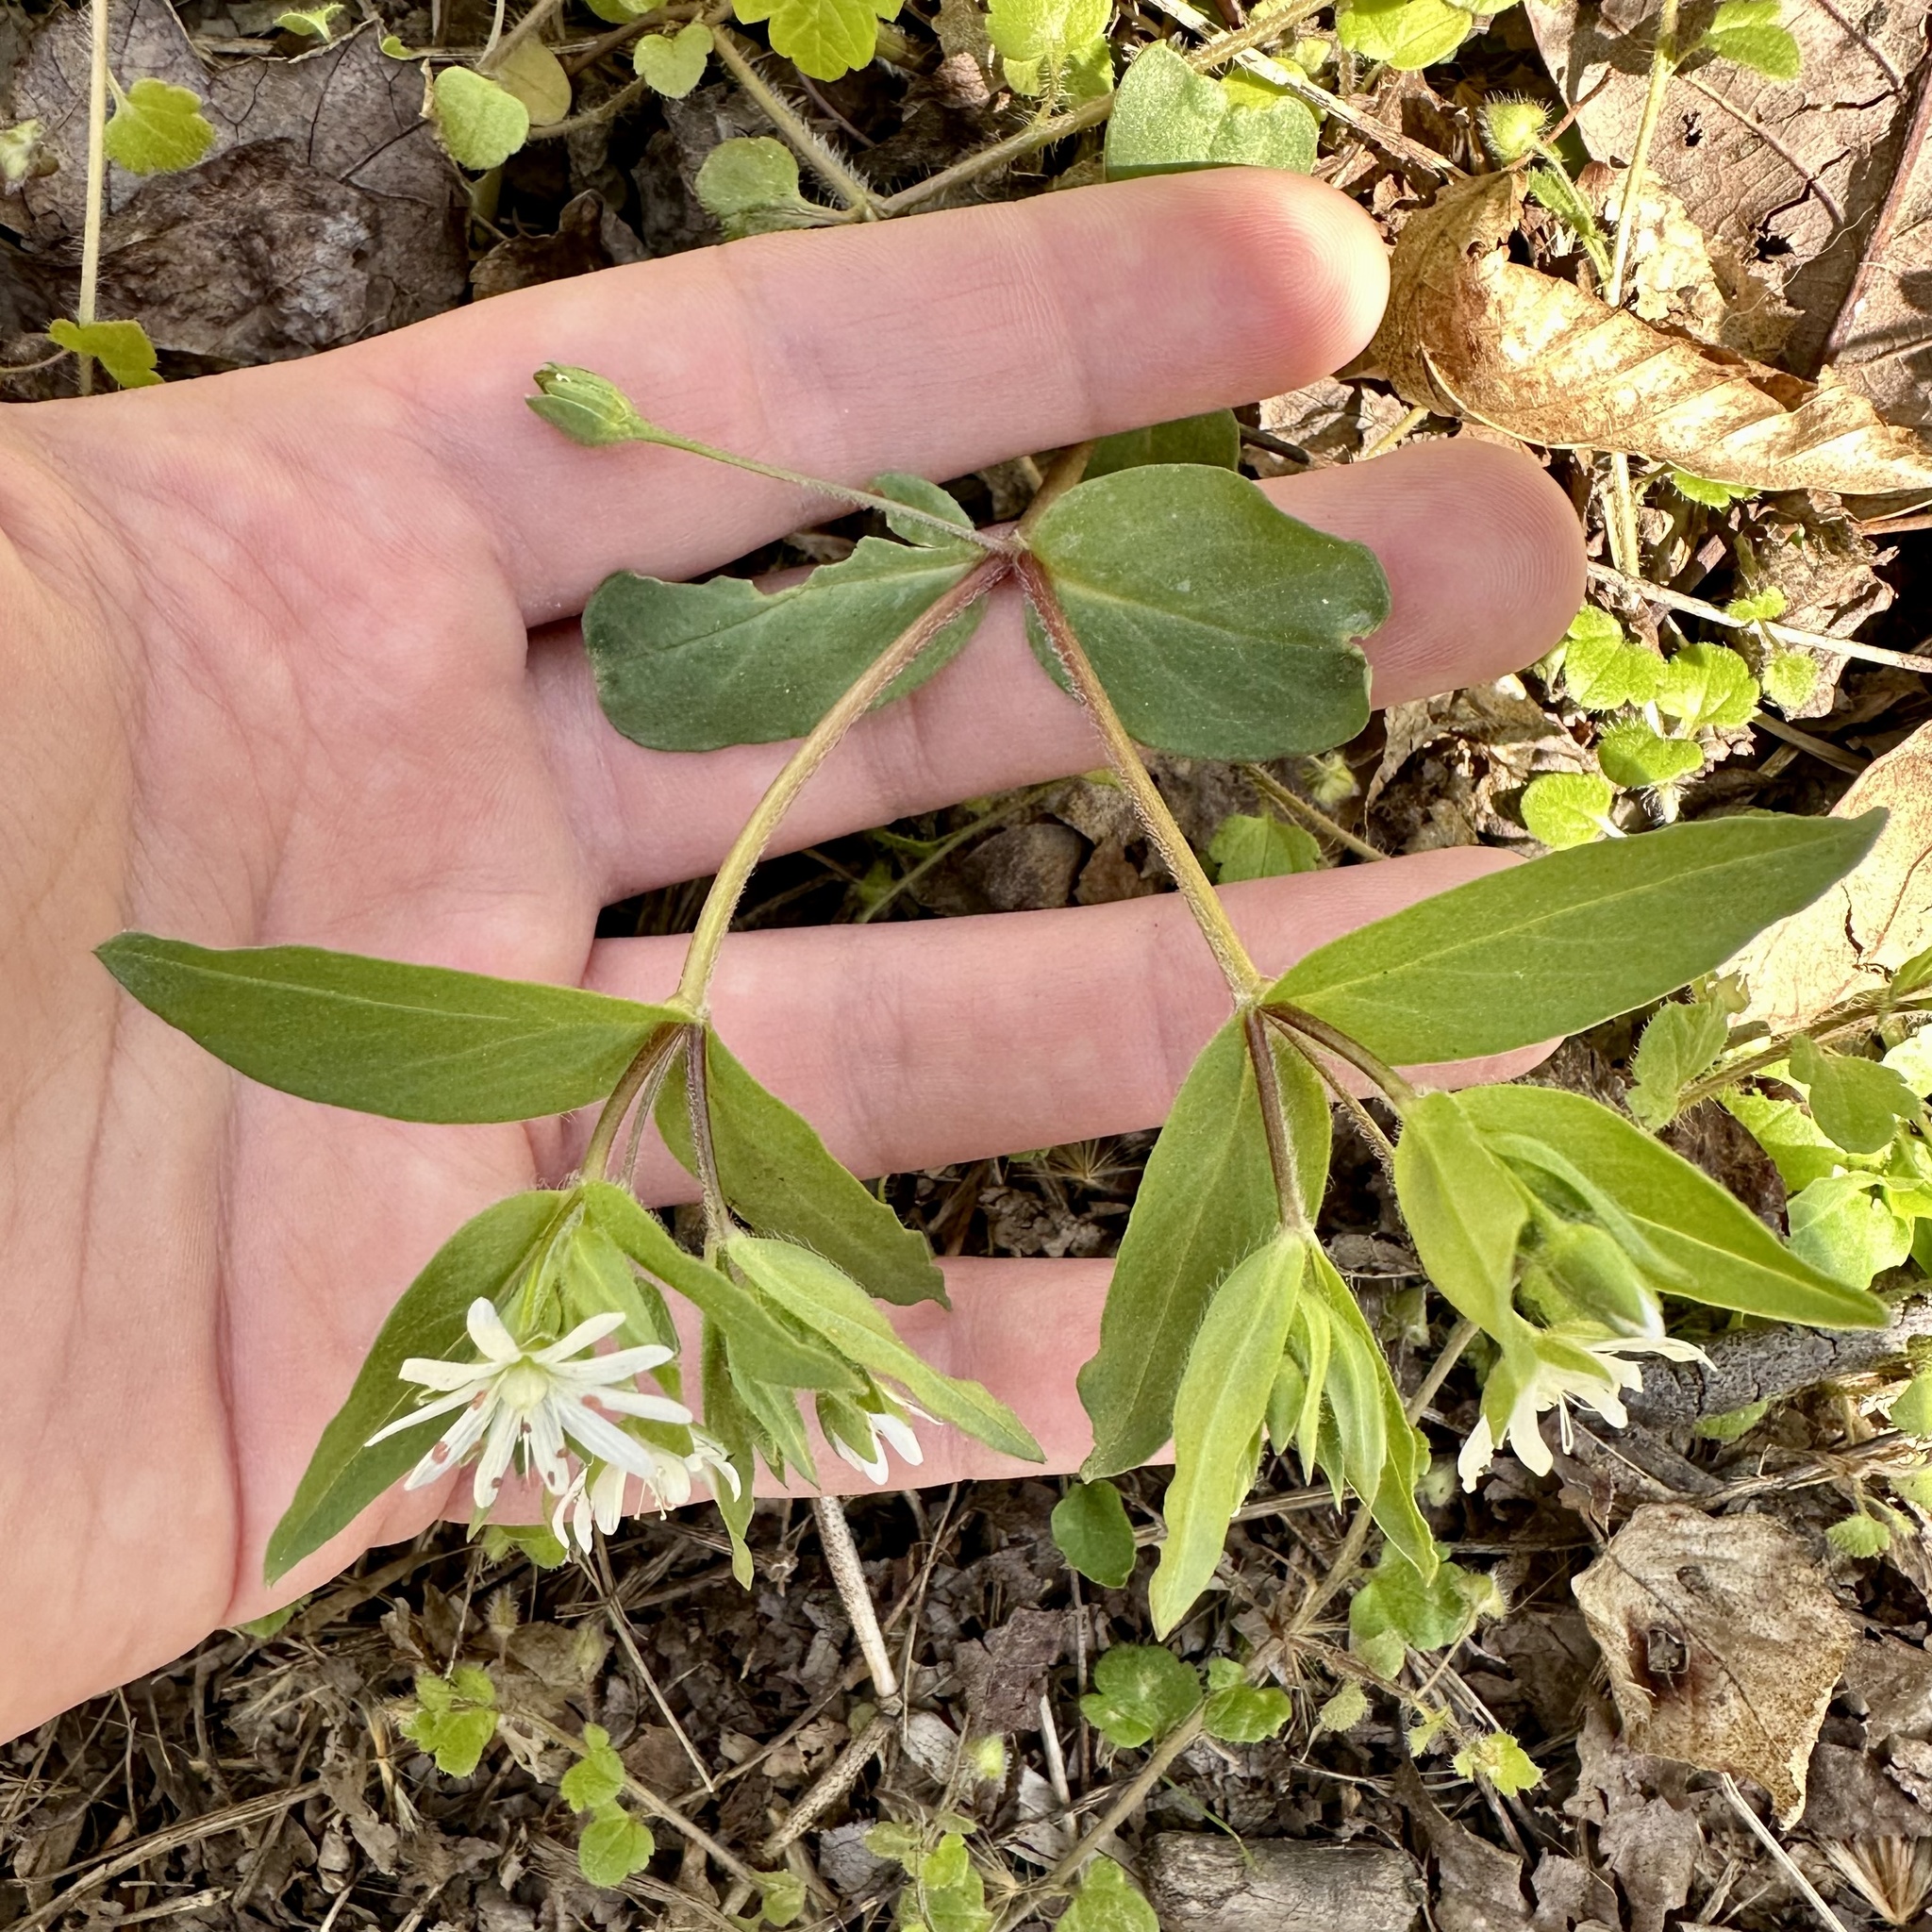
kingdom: Plantae
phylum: Tracheophyta
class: Magnoliopsida
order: Caryophyllales
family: Caryophyllaceae
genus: Stellaria
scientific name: Stellaria pubera
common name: Star chickweed
